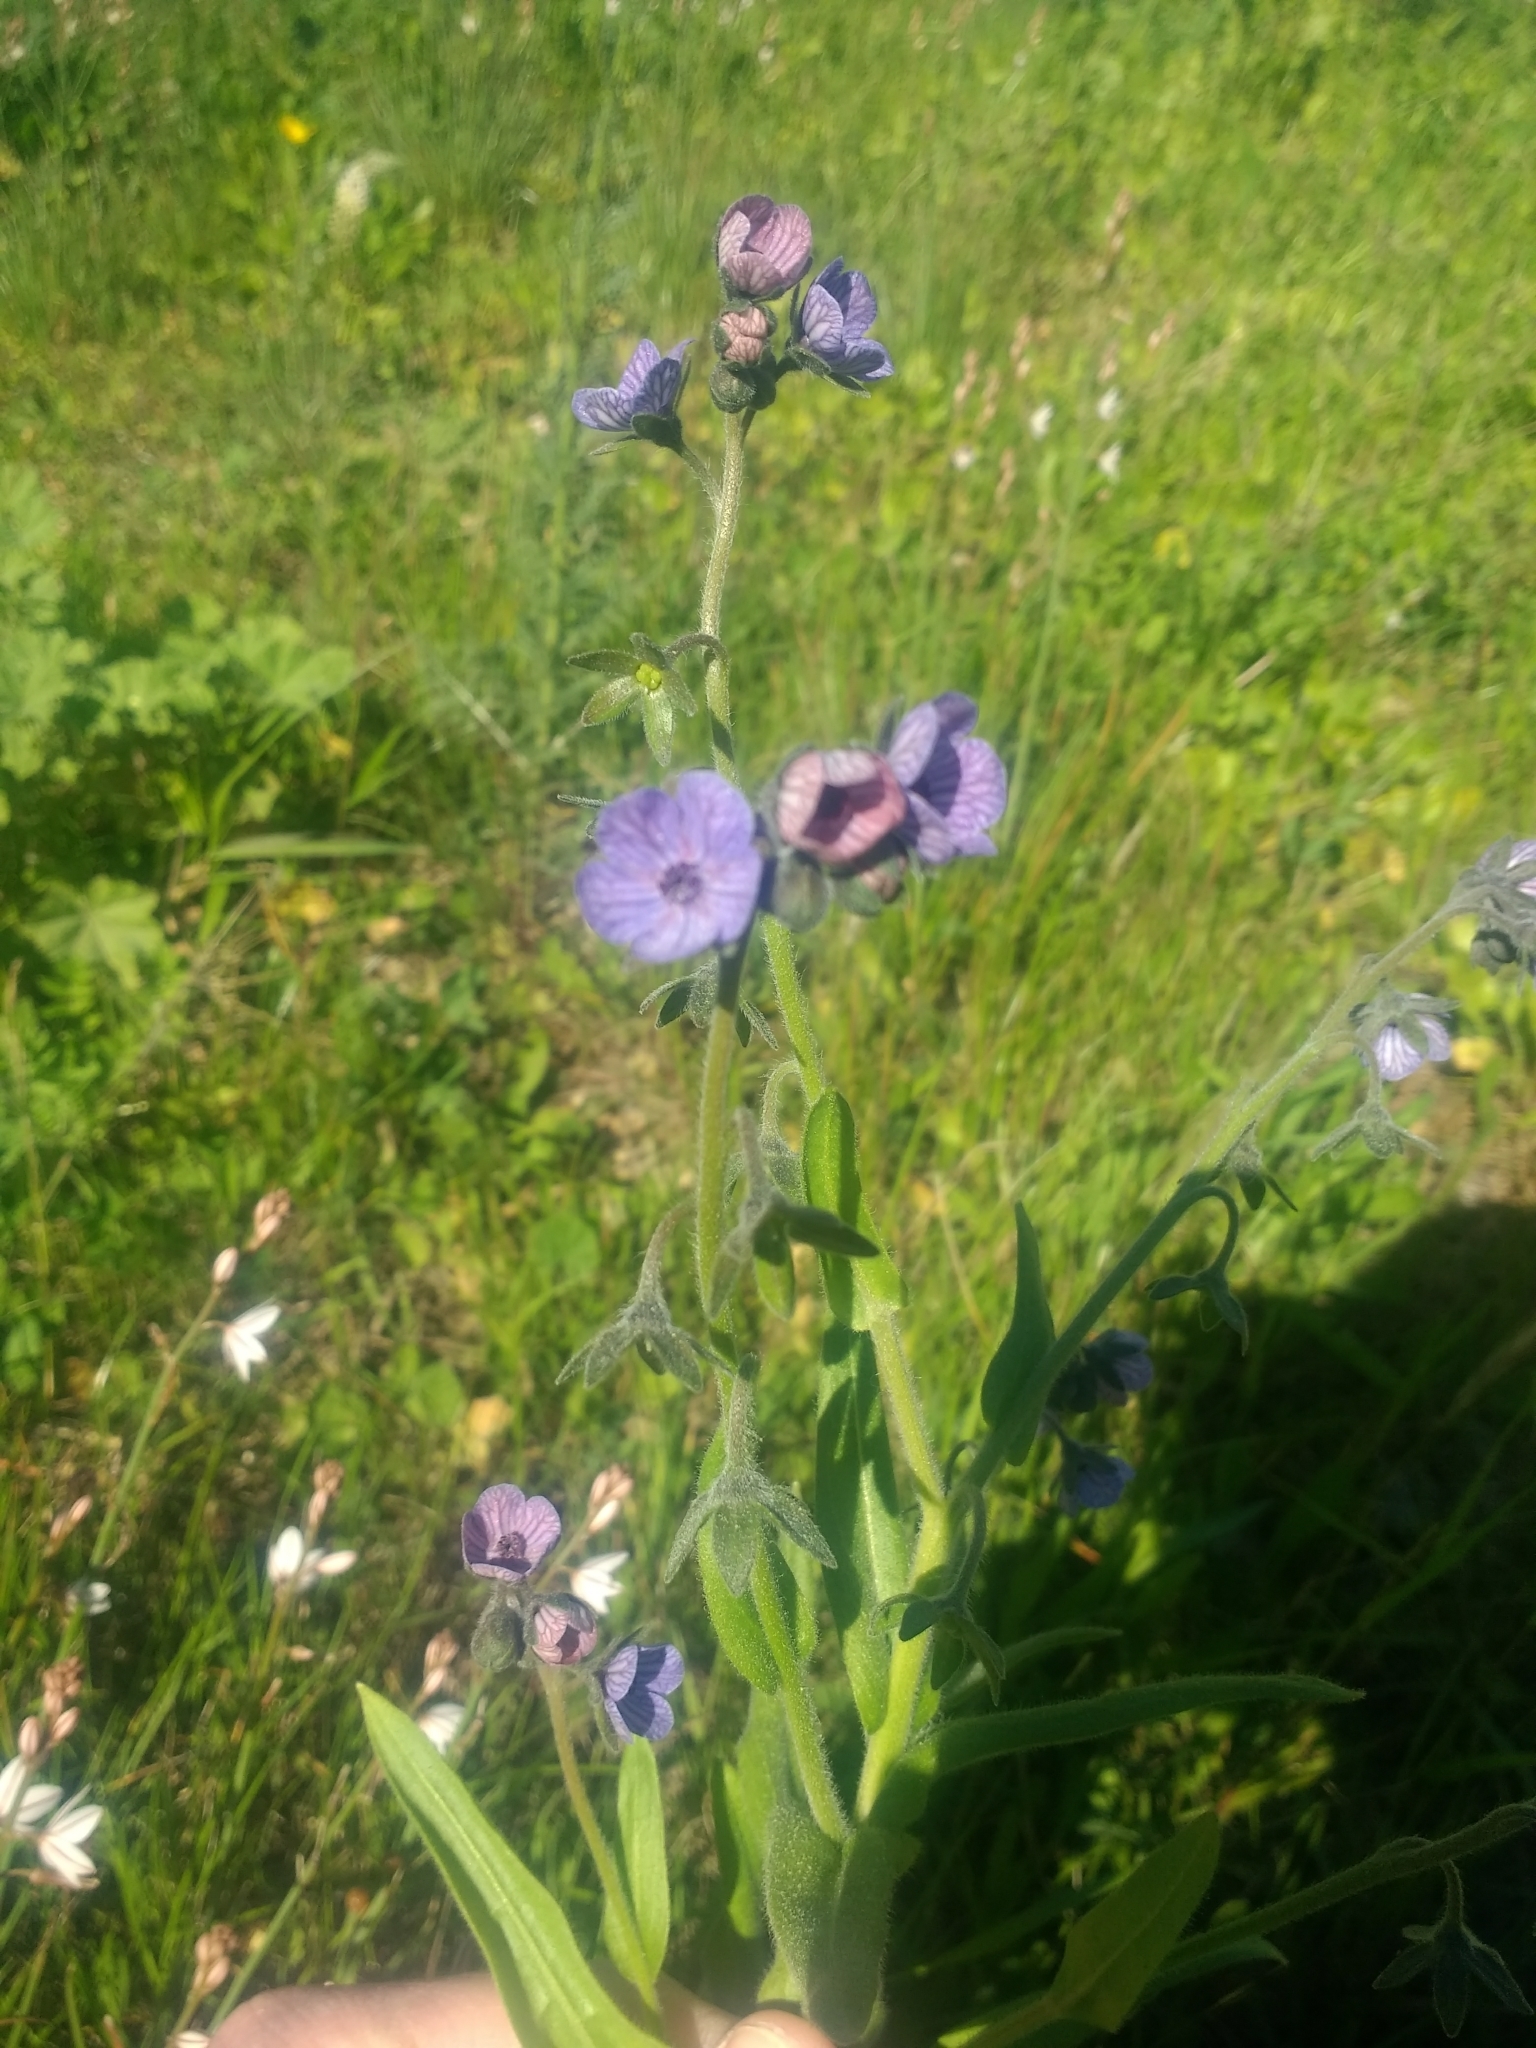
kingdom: Plantae
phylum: Tracheophyta
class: Magnoliopsida
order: Boraginales
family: Boraginaceae
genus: Cynoglossum
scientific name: Cynoglossum creticum
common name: Blue hound's tongue
